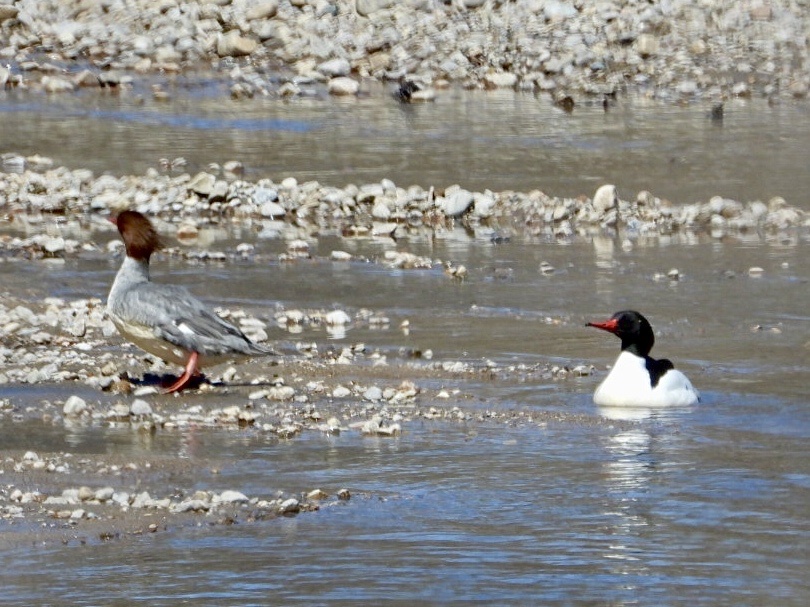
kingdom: Animalia
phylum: Chordata
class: Aves
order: Anseriformes
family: Anatidae
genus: Mergus
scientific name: Mergus merganser
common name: Common merganser
